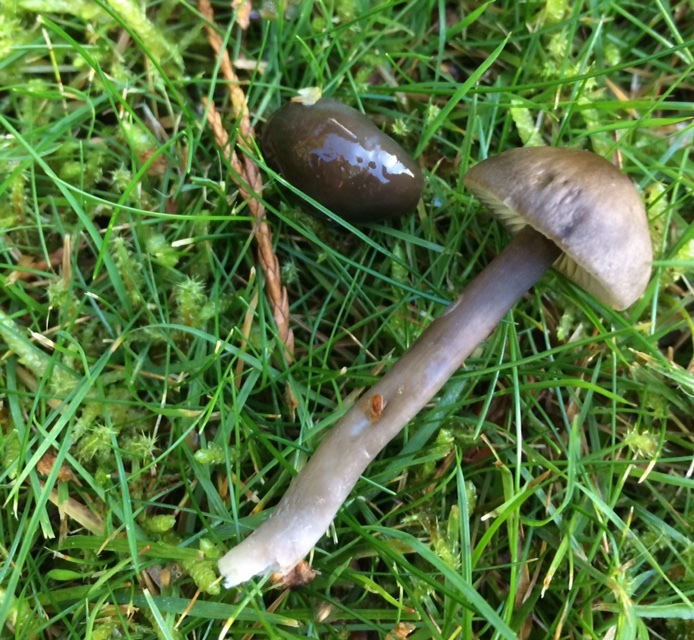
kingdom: Fungi
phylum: Basidiomycota
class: Agaricomycetes
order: Agaricales
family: Hygrophoraceae
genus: Gliophorus
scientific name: Gliophorus irrigatus
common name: Slimy waxcap
